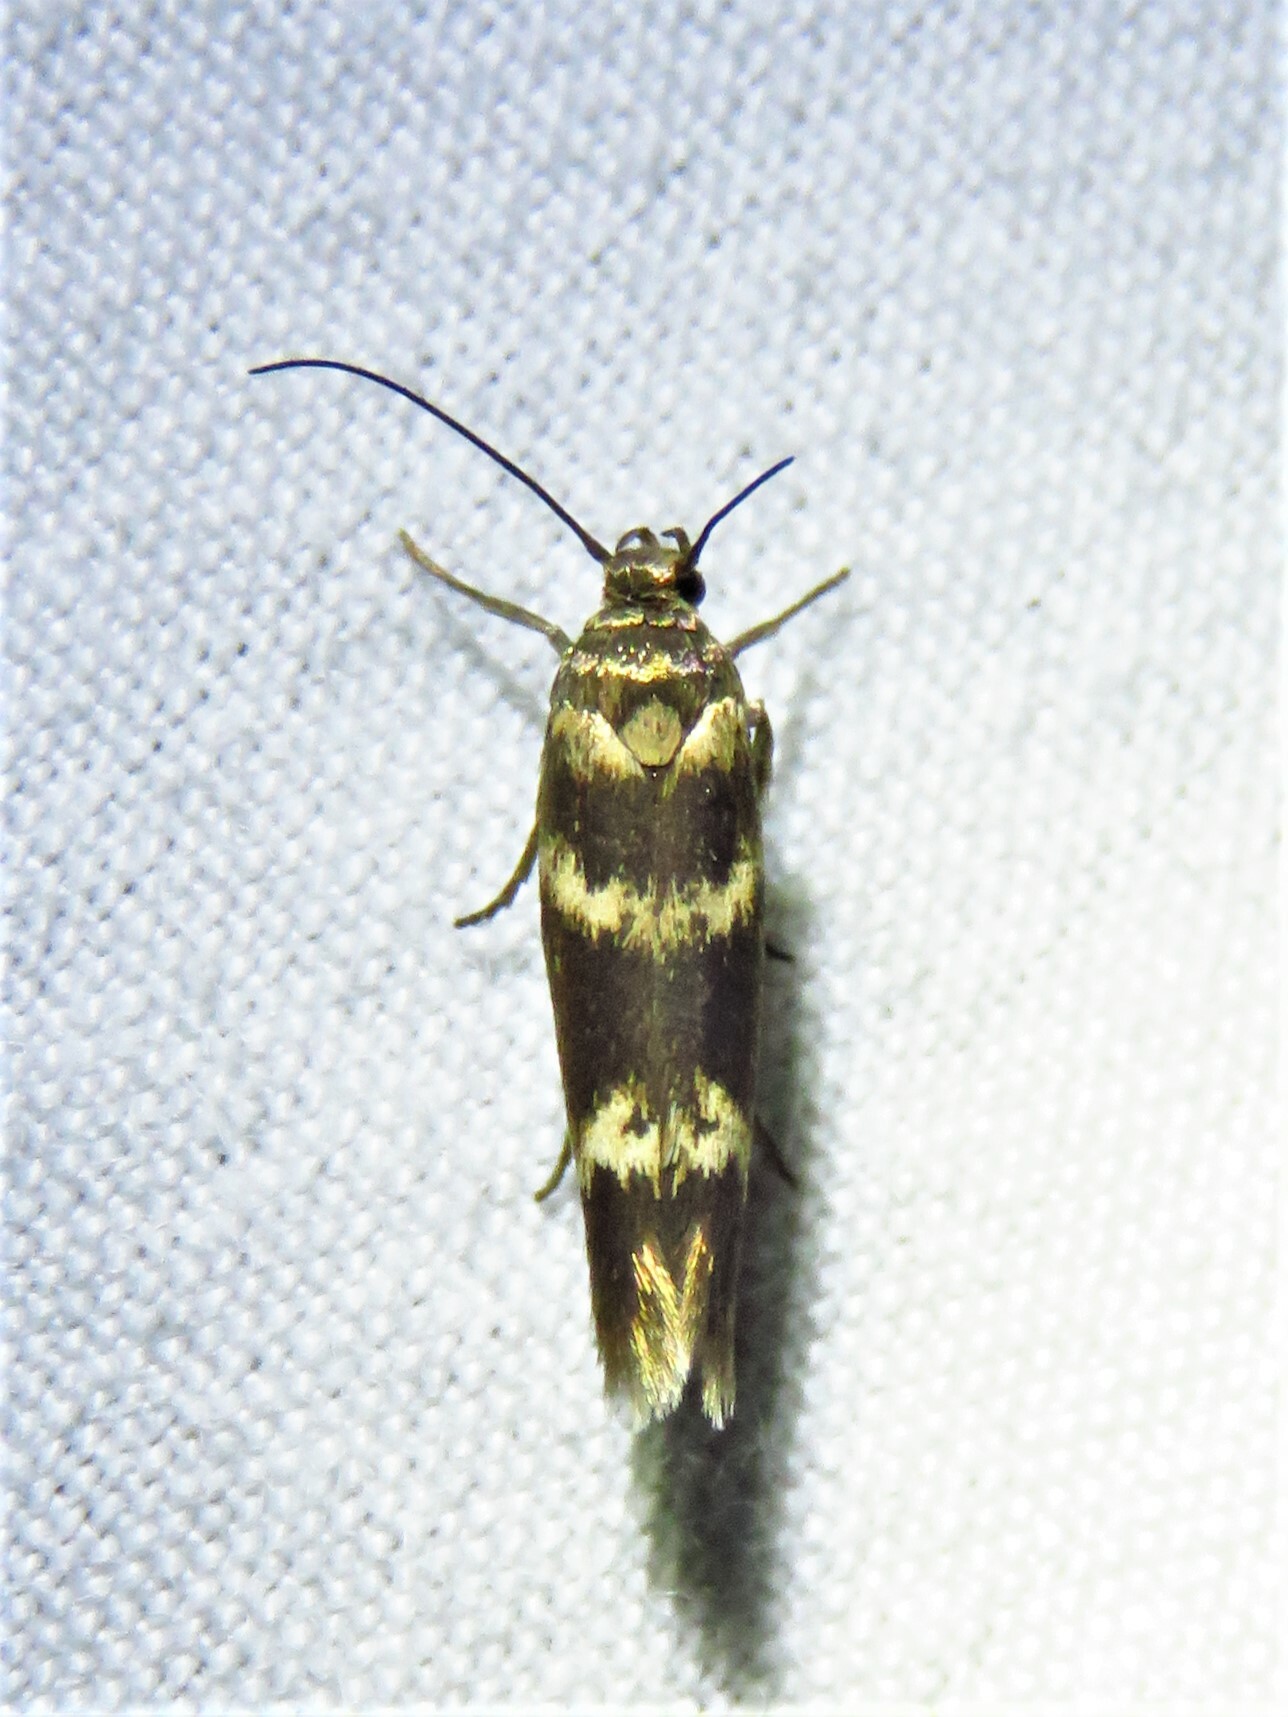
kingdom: Animalia
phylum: Arthropoda
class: Insecta
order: Lepidoptera
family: Scythrididae
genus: Scythris
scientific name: Scythris trivinctella
